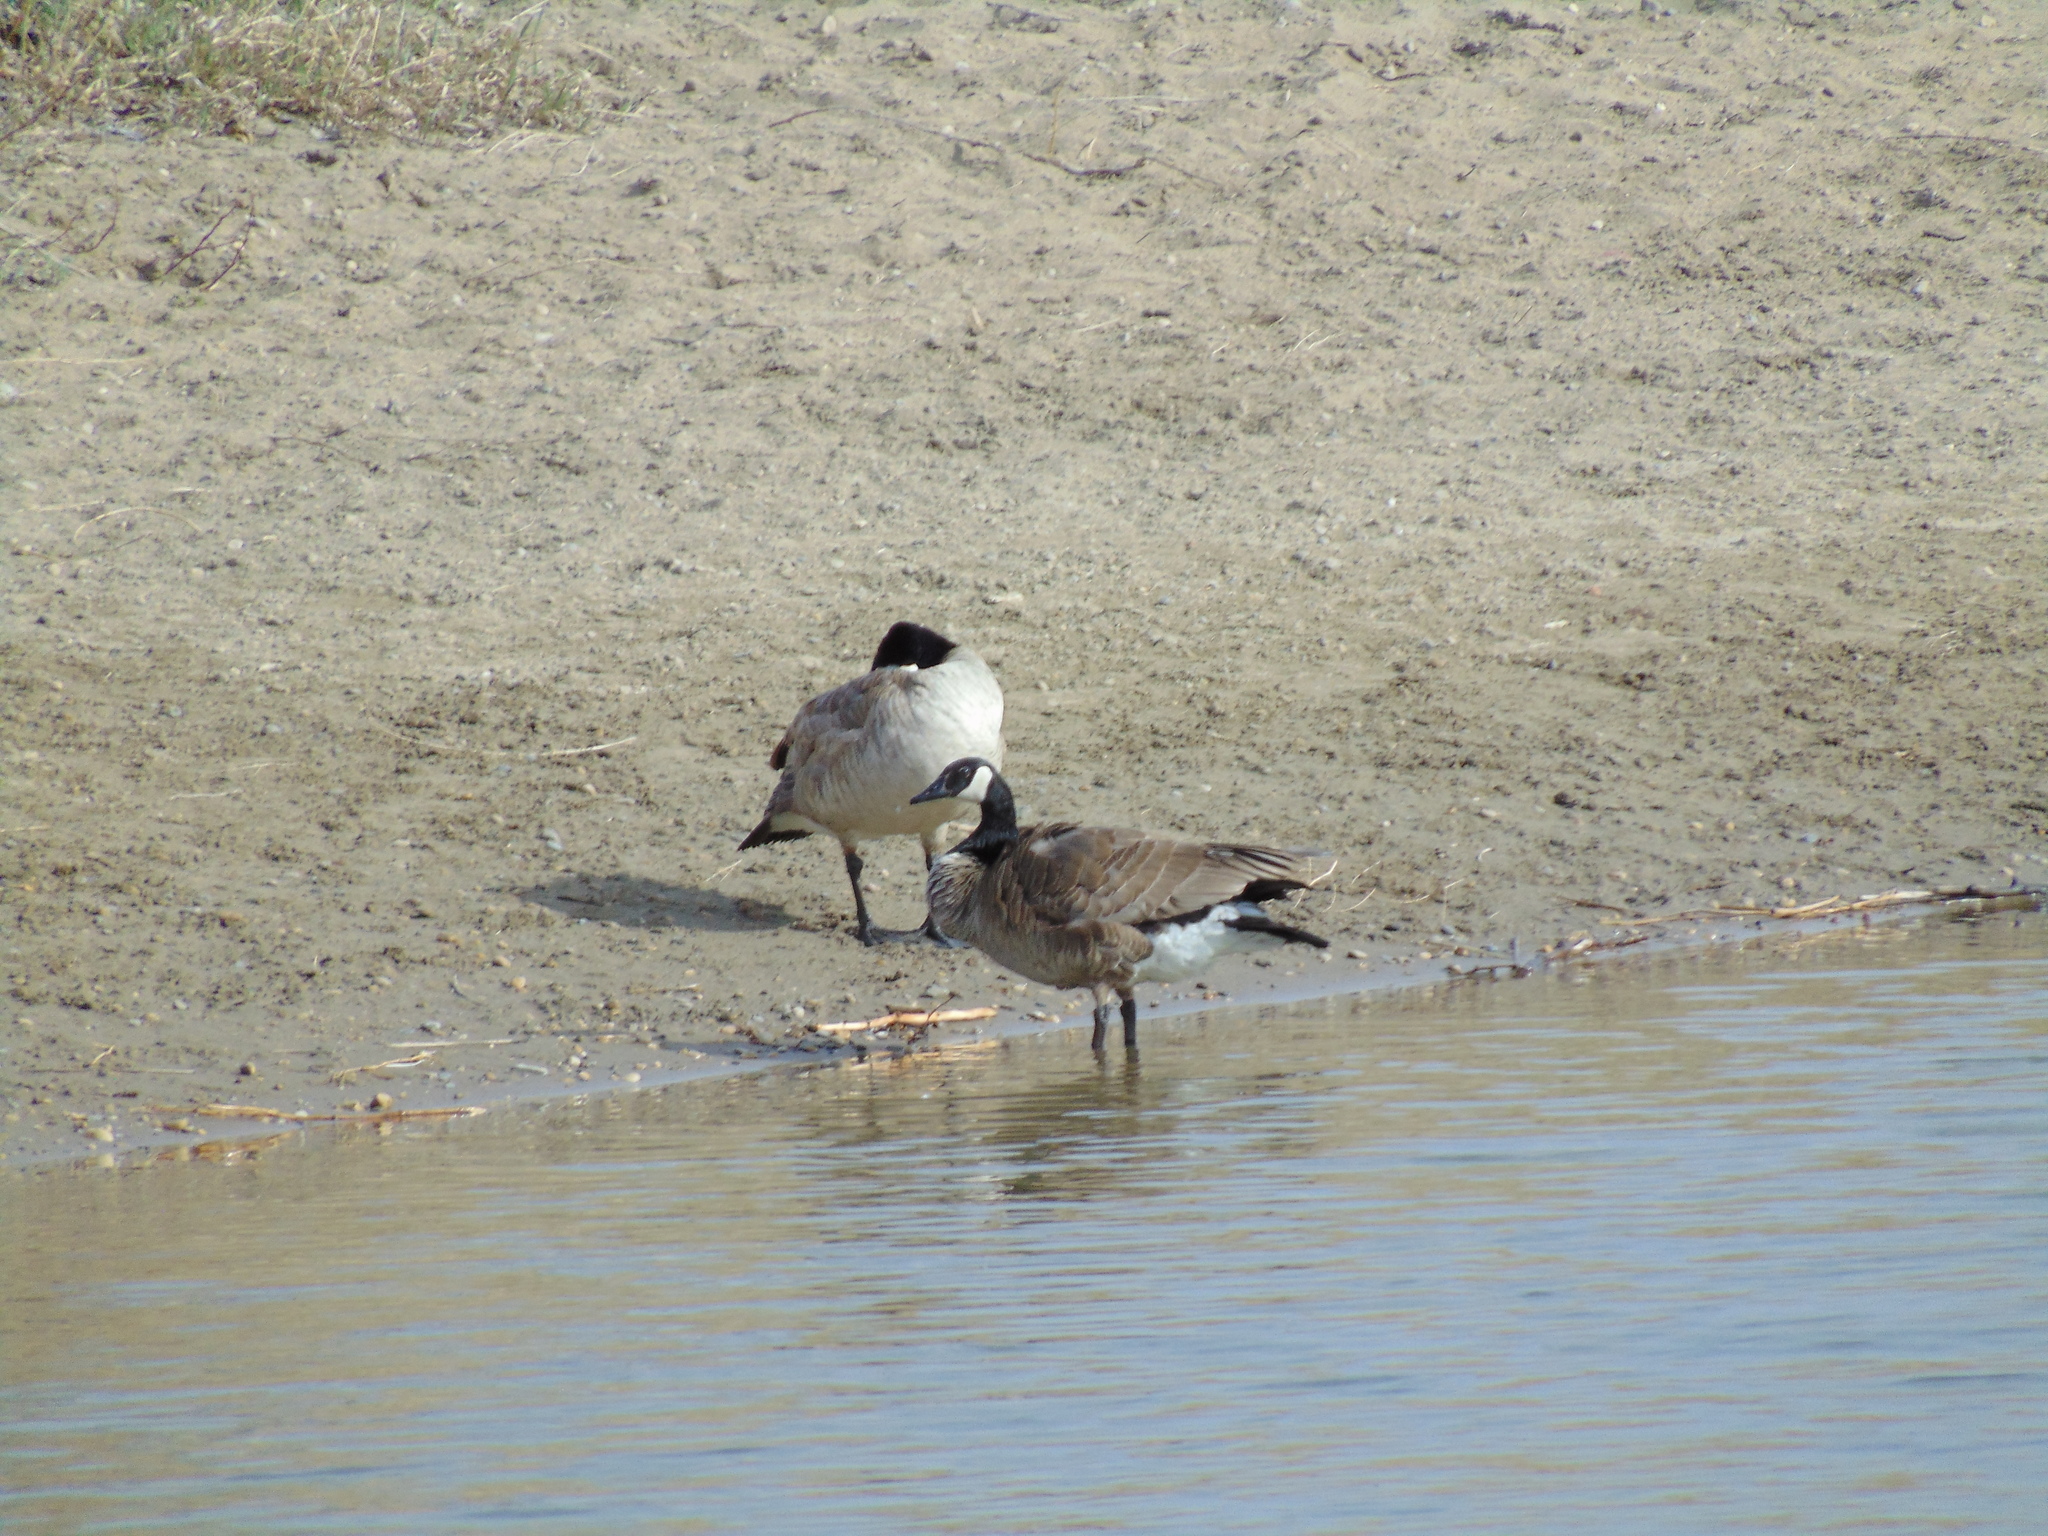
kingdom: Animalia
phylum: Chordata
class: Aves
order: Anseriformes
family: Anatidae
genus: Branta
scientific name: Branta canadensis
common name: Canada goose
